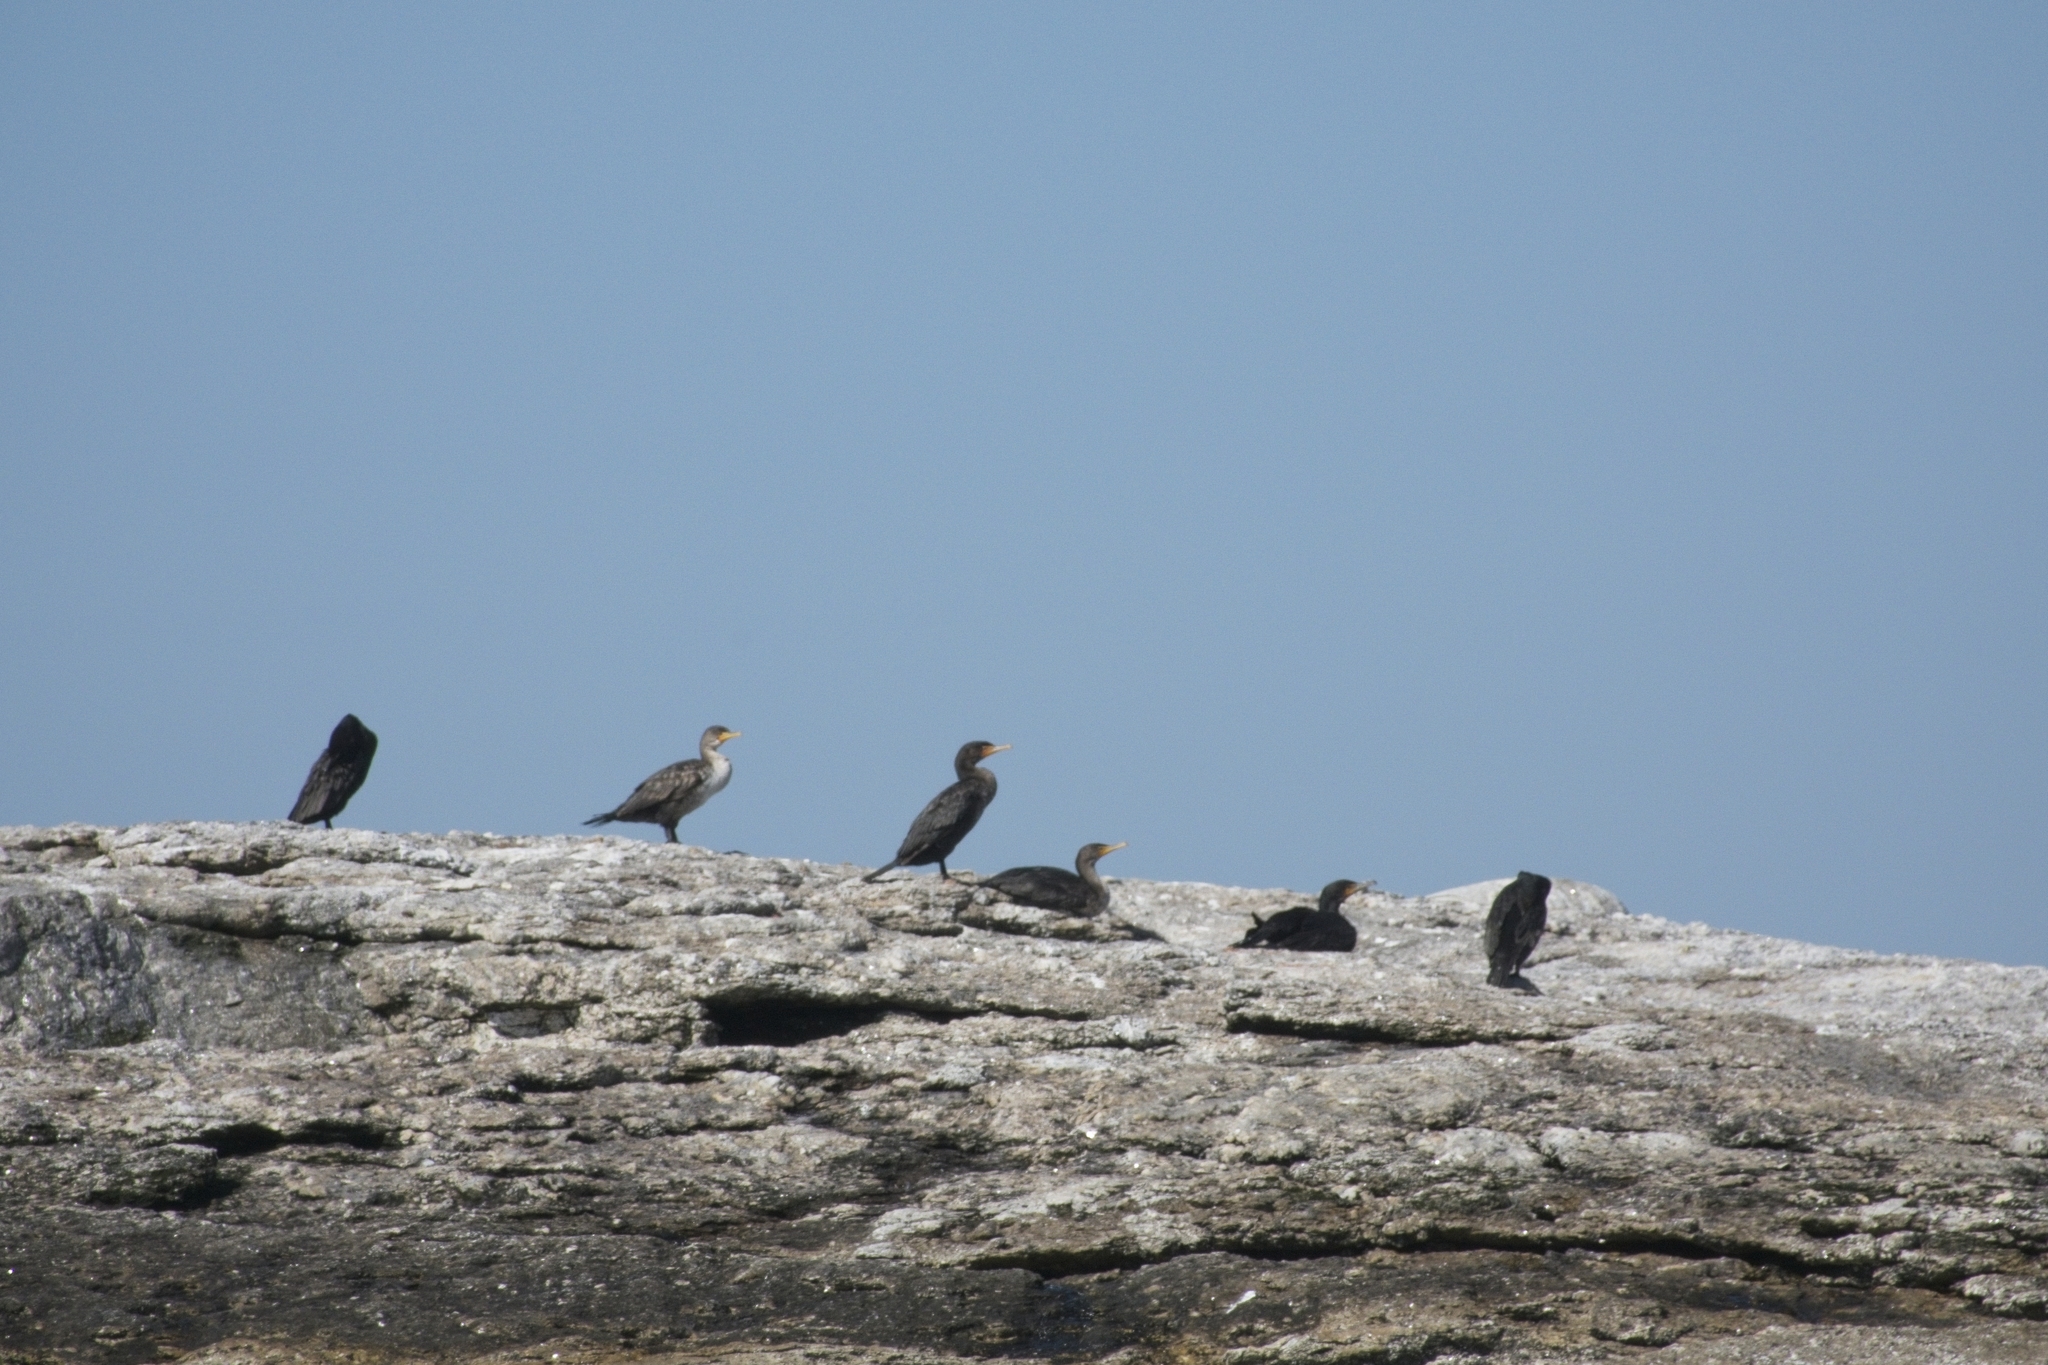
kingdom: Animalia
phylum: Chordata
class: Aves
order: Suliformes
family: Phalacrocoracidae
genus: Phalacrocorax
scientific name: Phalacrocorax auritus
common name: Double-crested cormorant
